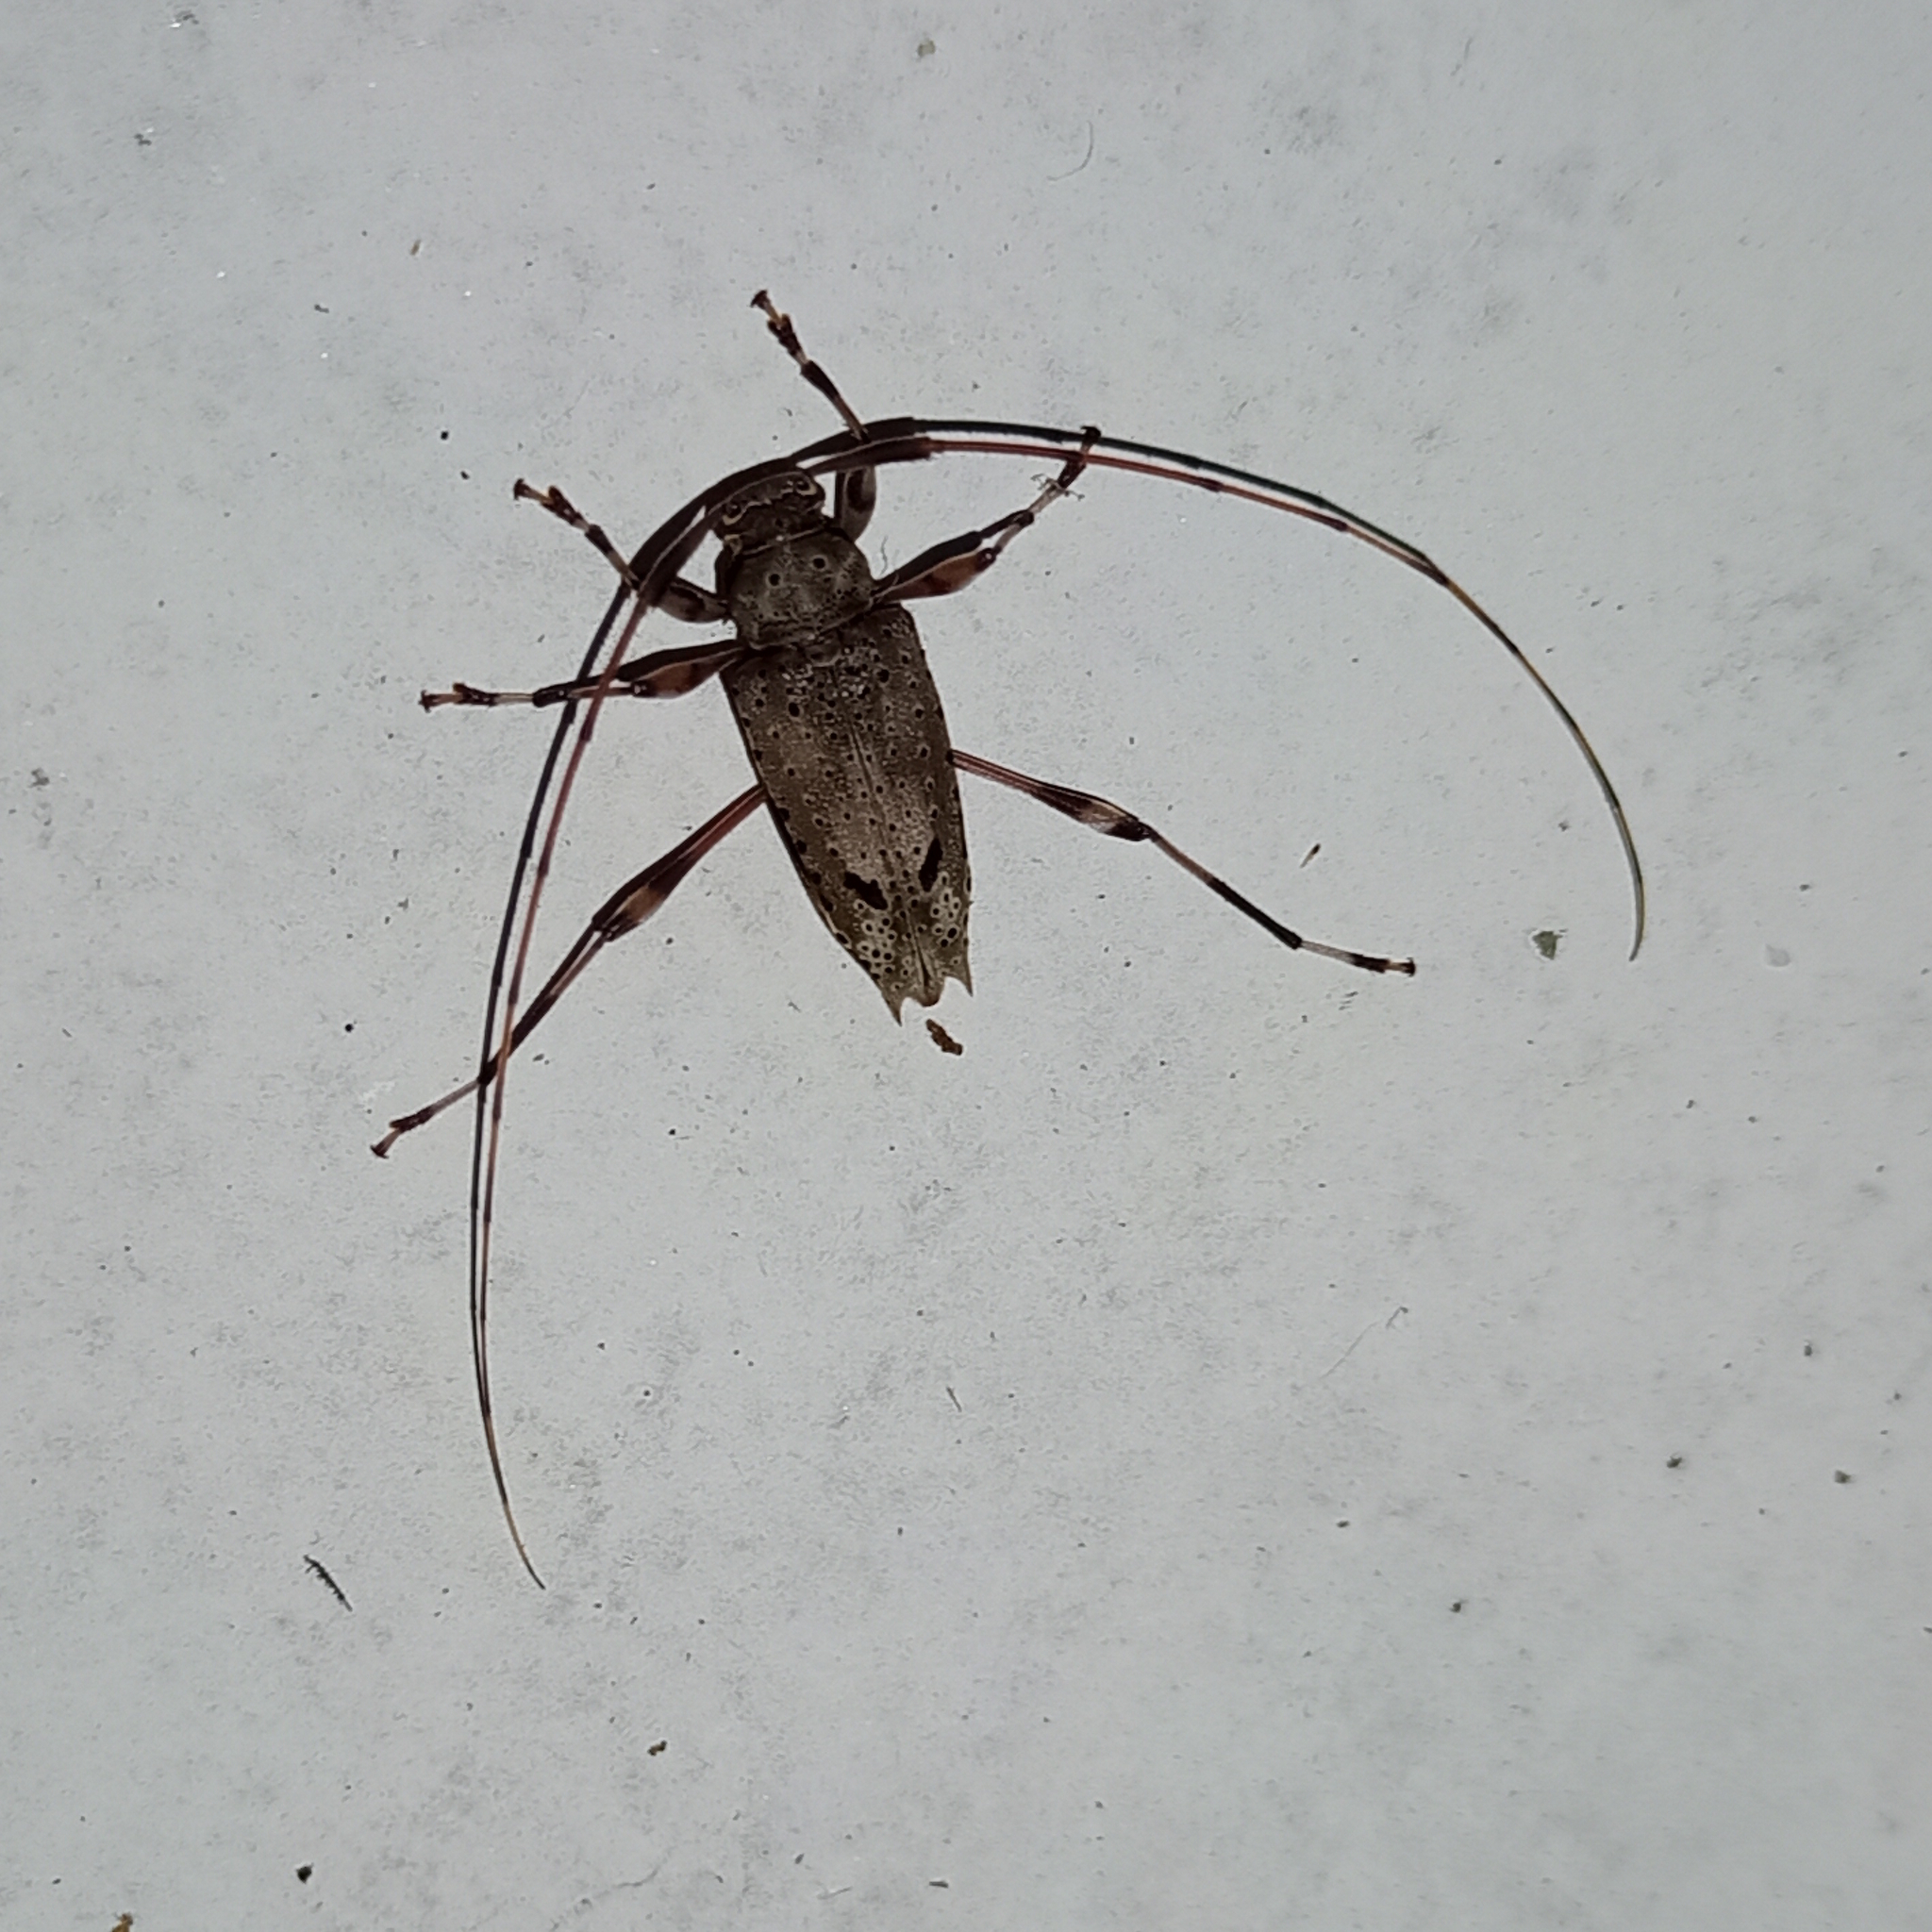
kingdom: Animalia
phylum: Arthropoda
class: Insecta
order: Coleoptera
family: Cerambycidae
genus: Anisopodus
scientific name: Anisopodus arachnoides
